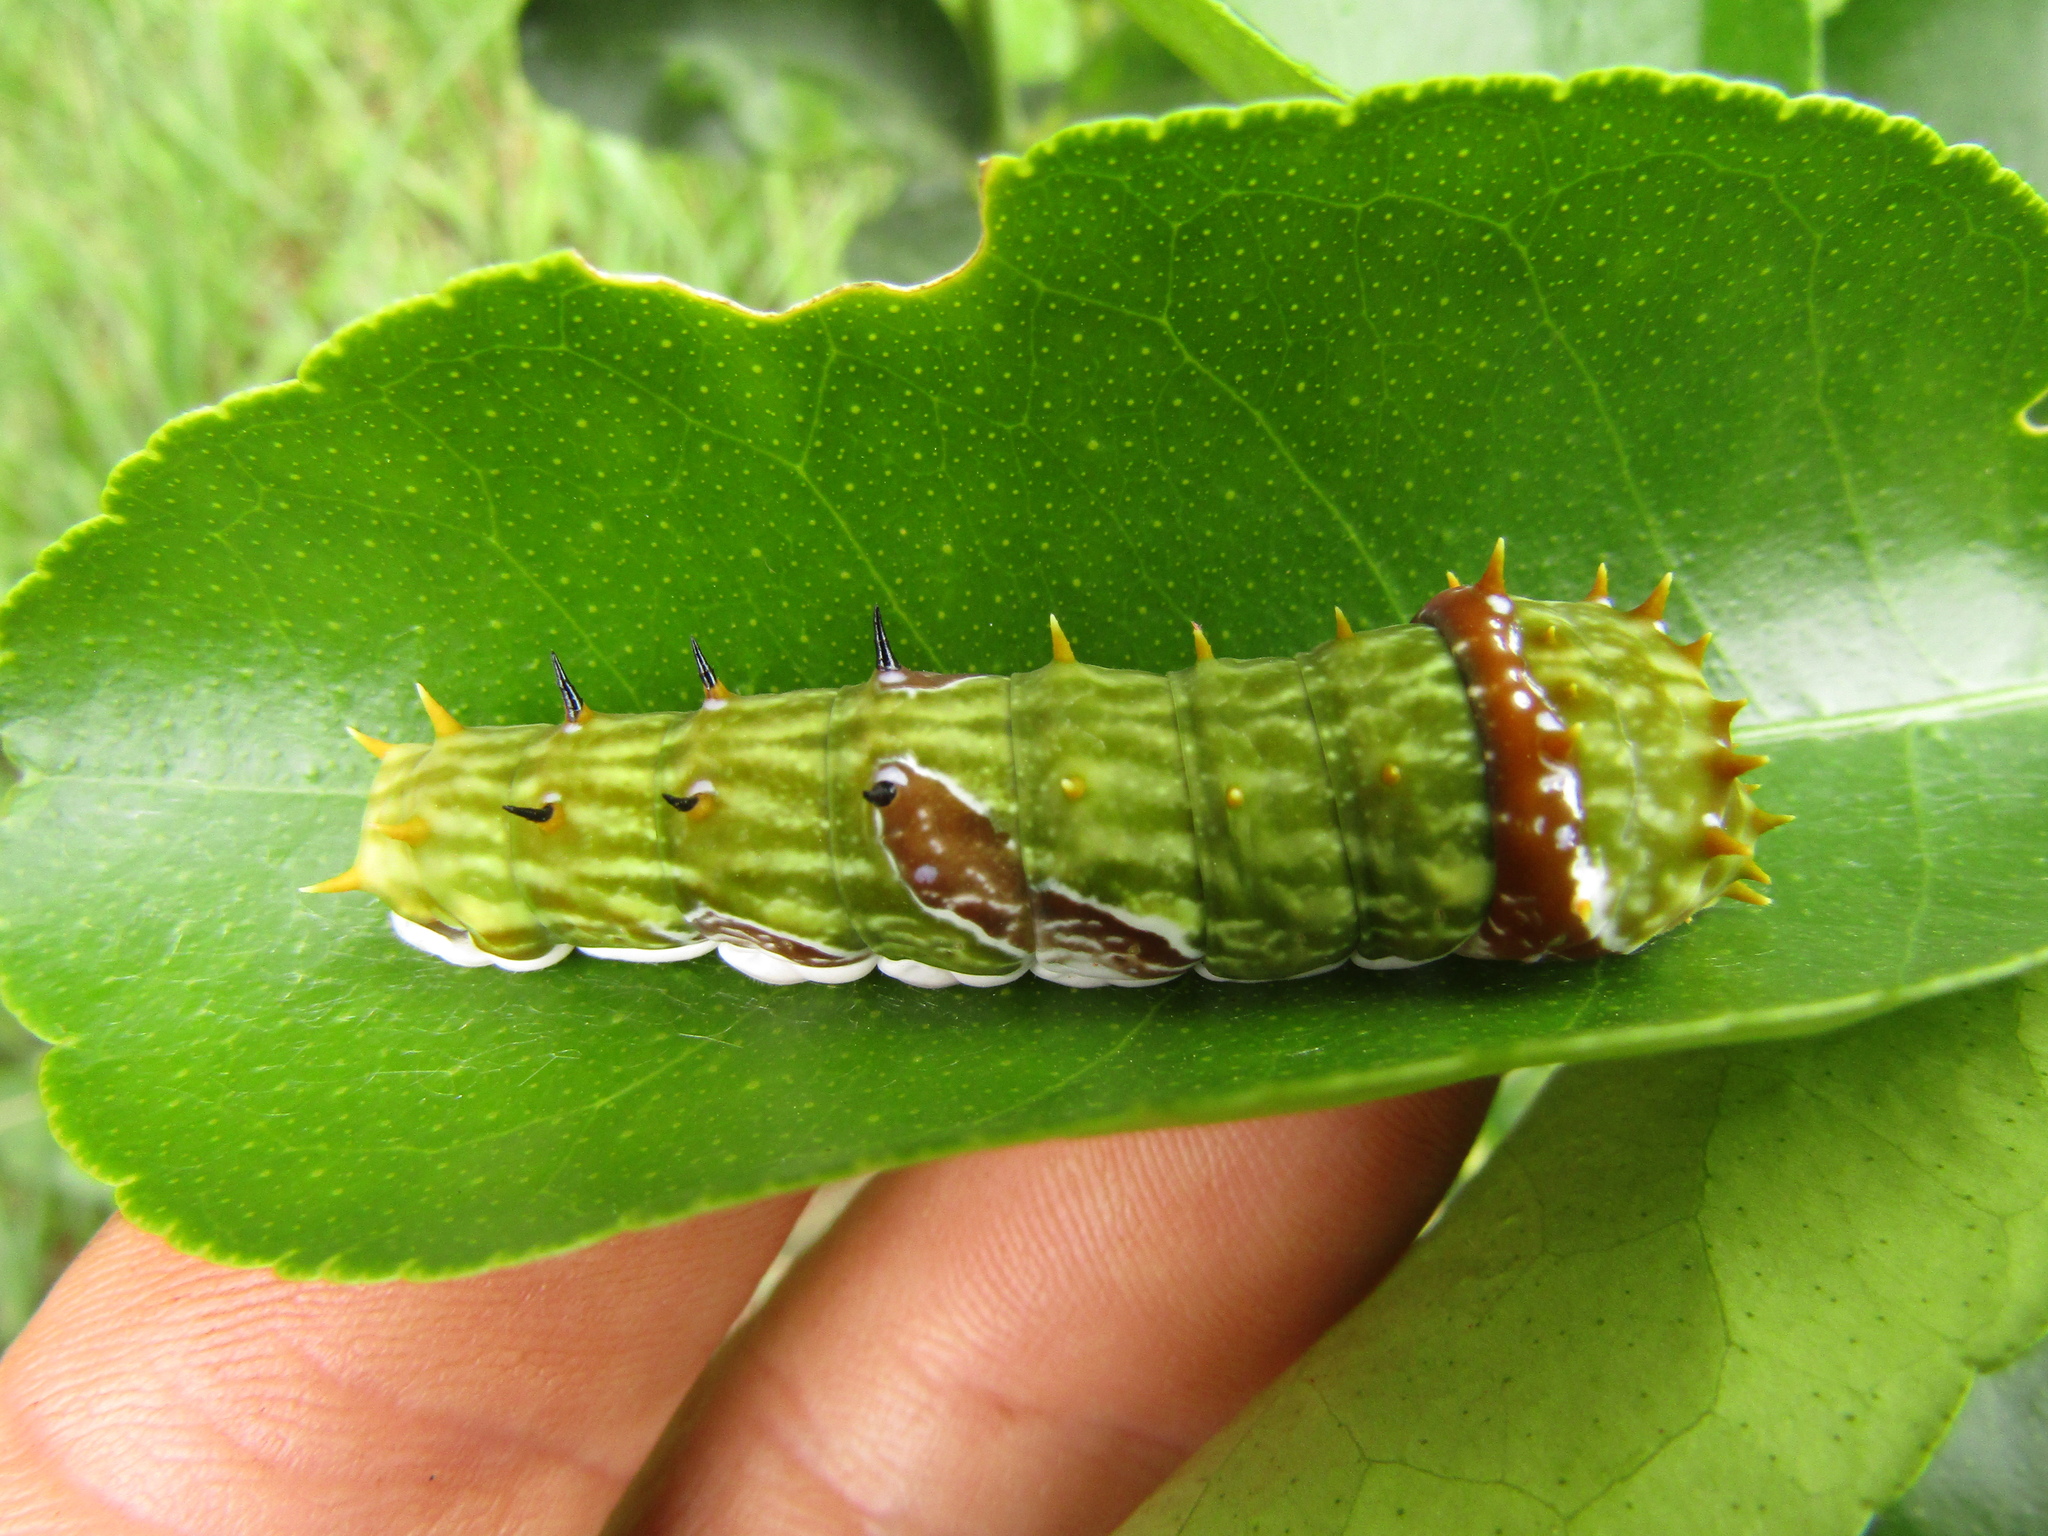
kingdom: Animalia
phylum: Arthropoda
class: Insecta
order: Lepidoptera
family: Papilionidae
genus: Papilio
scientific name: Papilio aegeus
